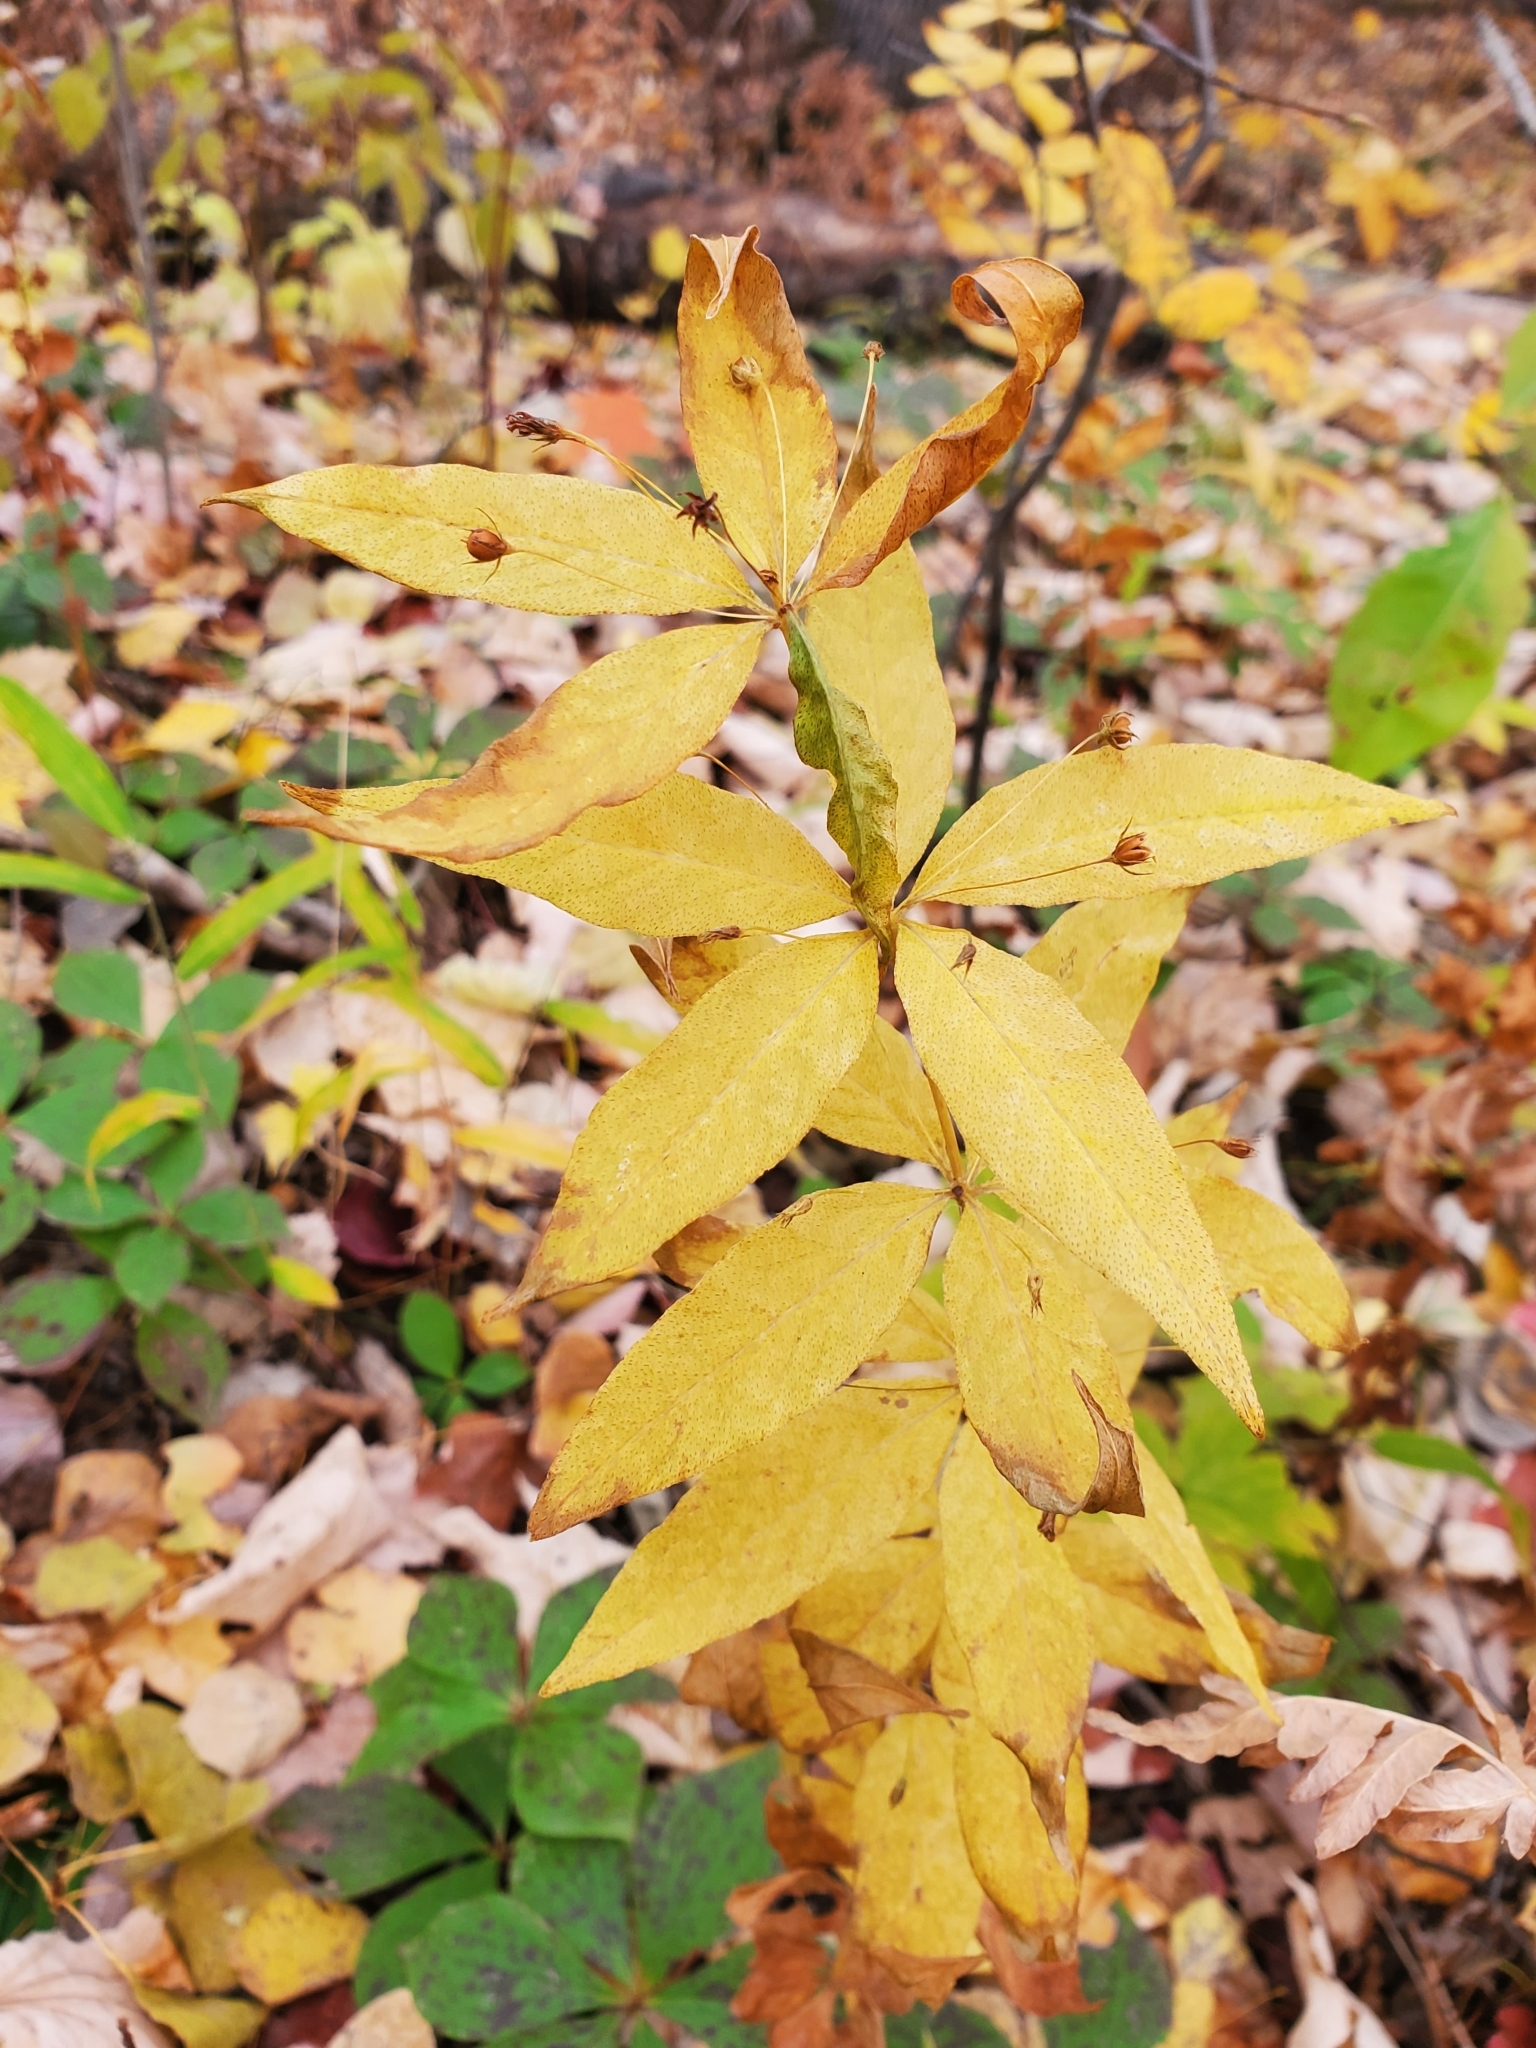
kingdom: Plantae
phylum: Tracheophyta
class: Magnoliopsida
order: Ericales
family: Primulaceae
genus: Lysimachia
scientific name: Lysimachia quadrifolia
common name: Whorled loosestrife
